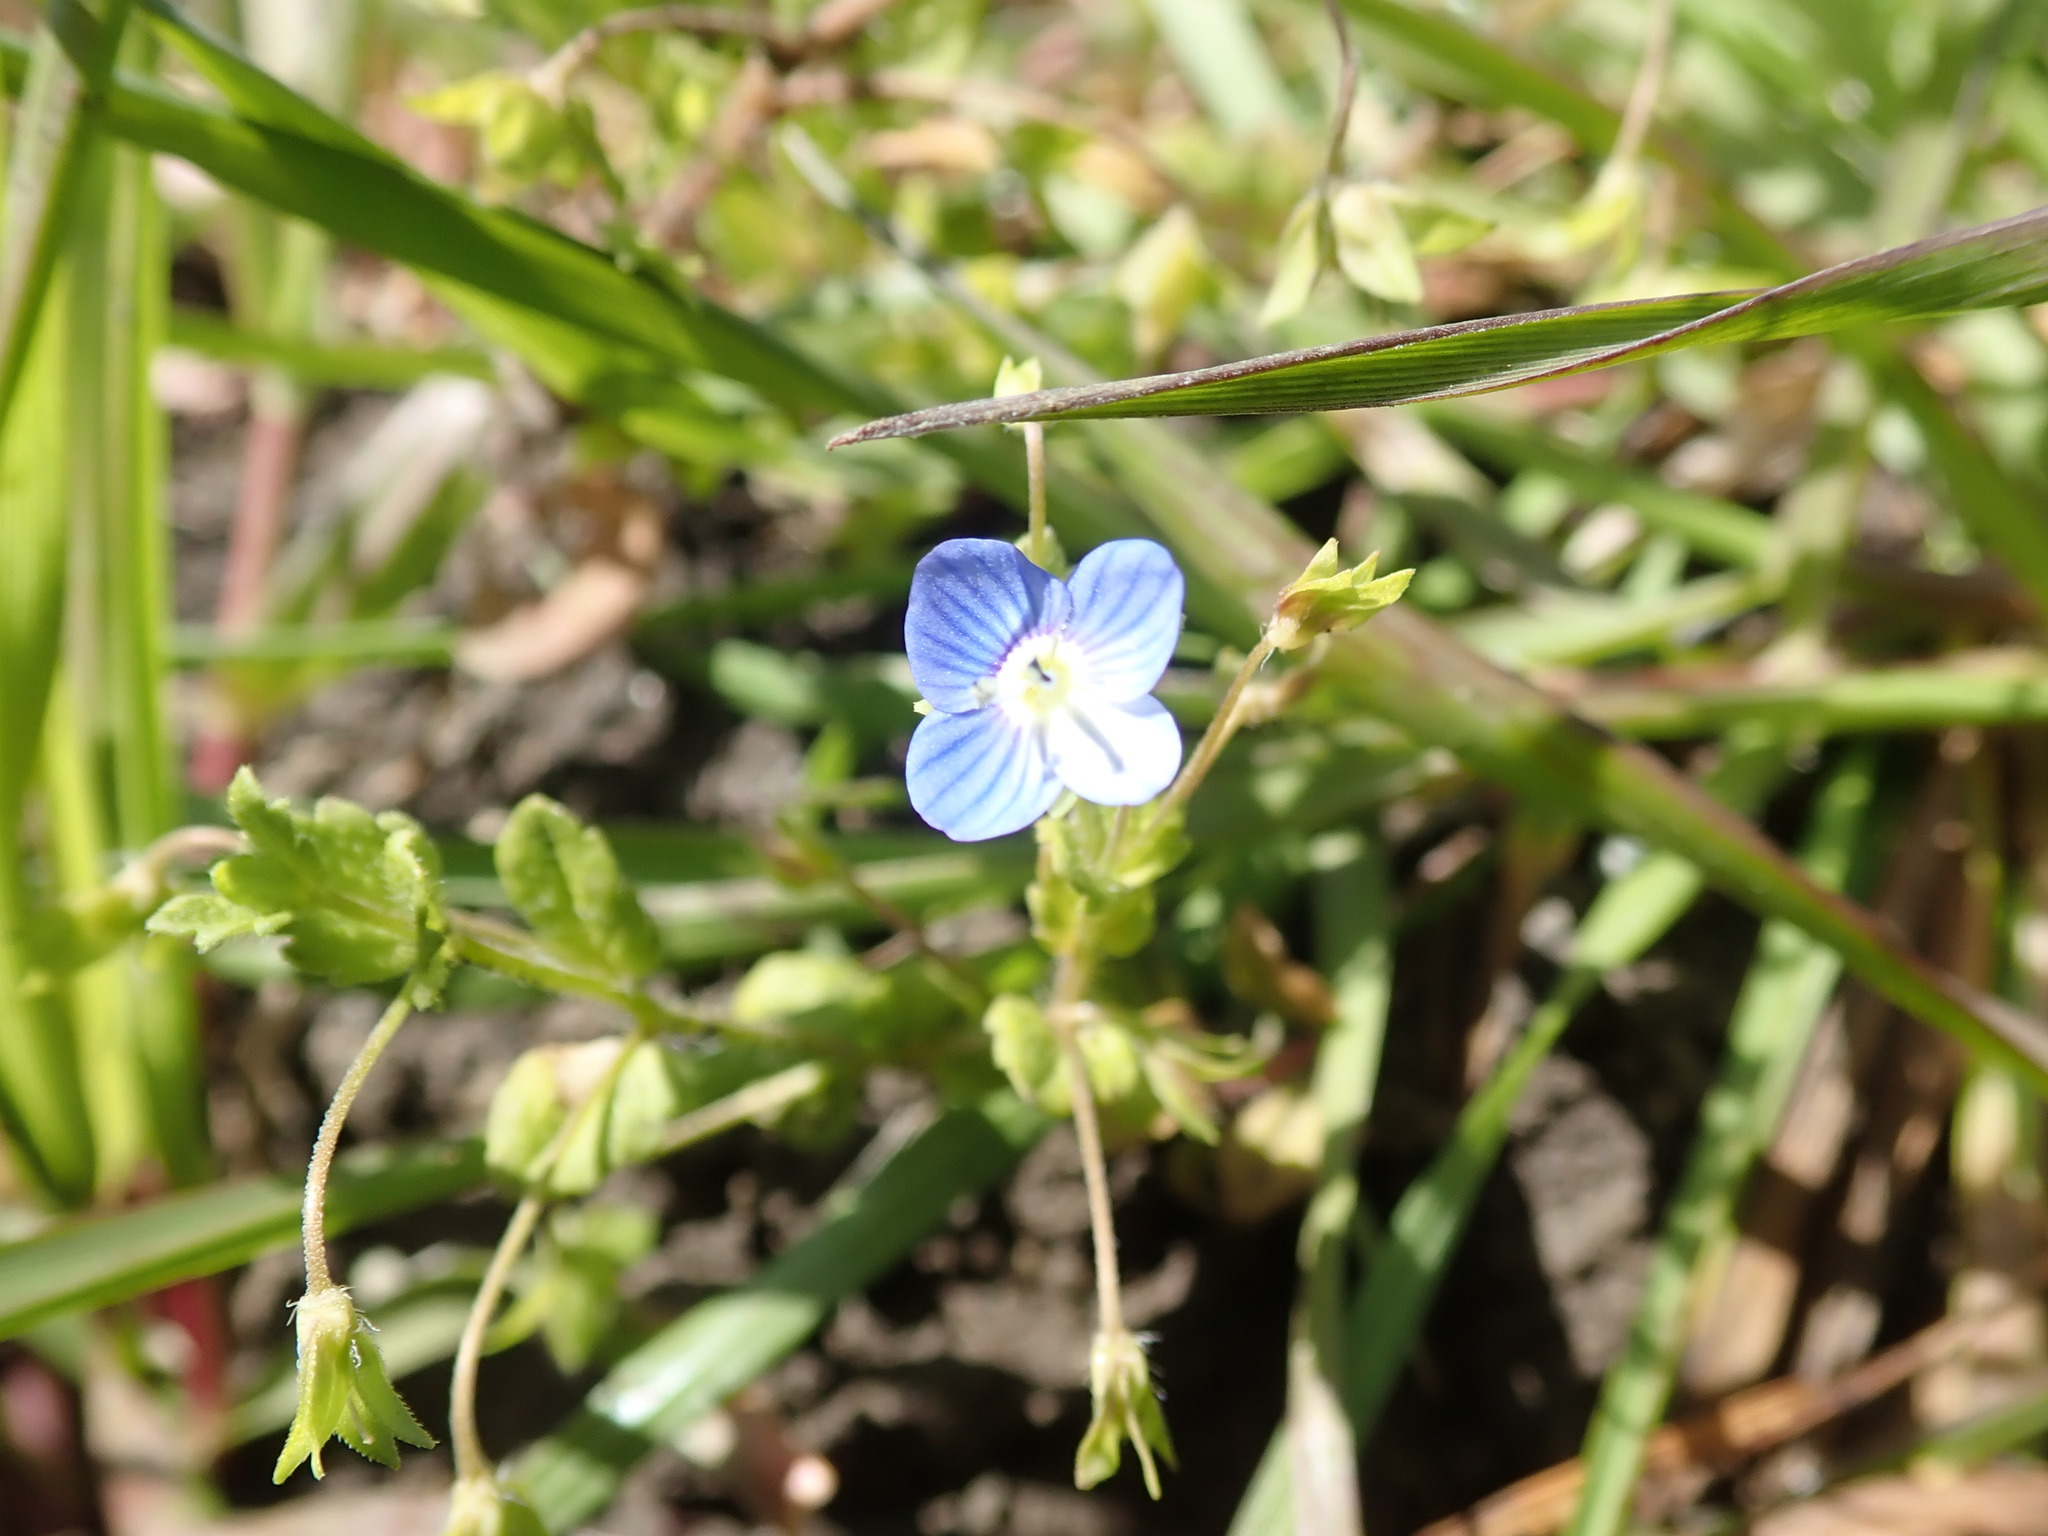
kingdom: Plantae
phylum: Tracheophyta
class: Magnoliopsida
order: Lamiales
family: Plantaginaceae
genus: Veronica
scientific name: Veronica persica
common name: Common field-speedwell
